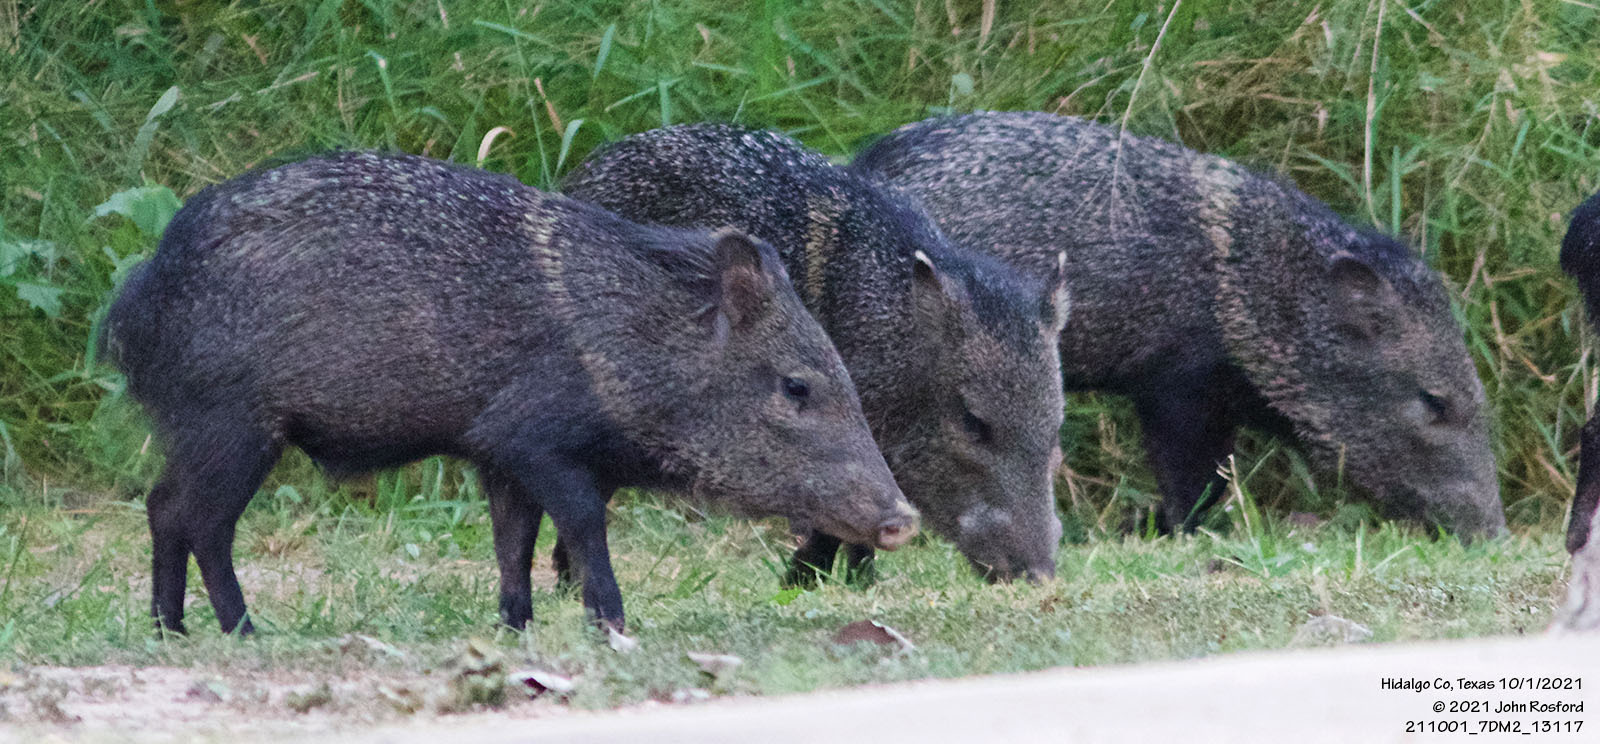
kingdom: Animalia
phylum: Chordata
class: Mammalia
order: Artiodactyla
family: Tayassuidae
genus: Pecari
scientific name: Pecari tajacu
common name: Collared peccary
